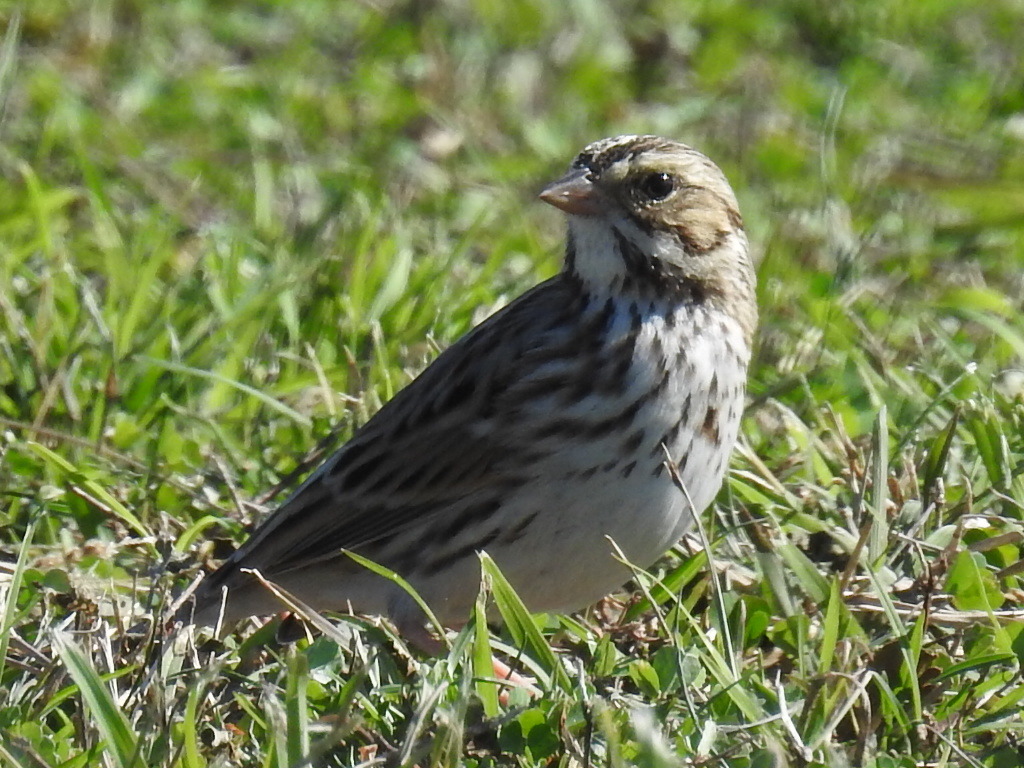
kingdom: Animalia
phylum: Chordata
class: Aves
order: Passeriformes
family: Passerellidae
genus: Passerculus
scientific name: Passerculus sandwichensis
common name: Savannah sparrow
